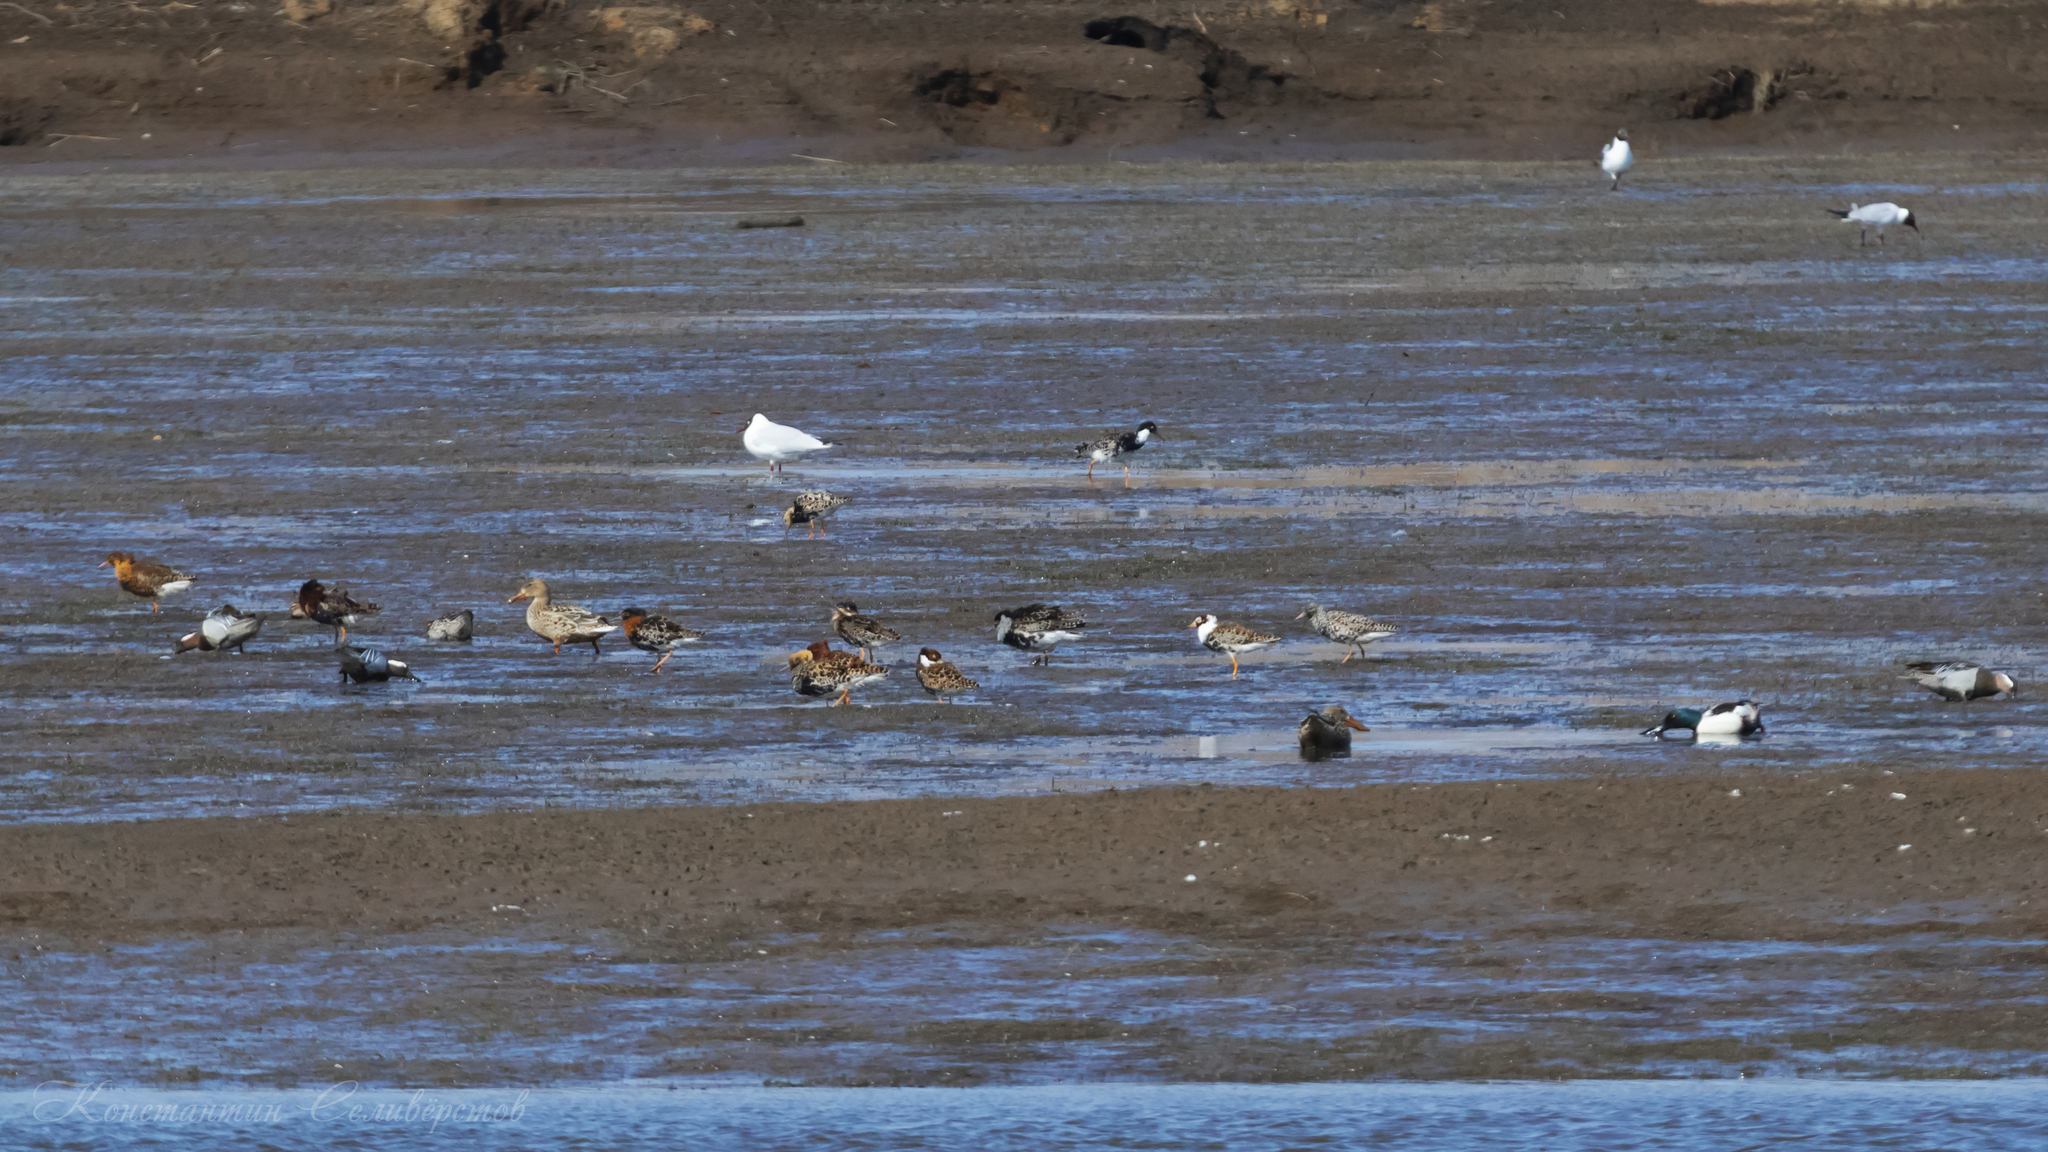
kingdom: Animalia
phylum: Chordata
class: Aves
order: Charadriiformes
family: Scolopacidae
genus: Calidris
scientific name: Calidris pugnax
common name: Ruff
